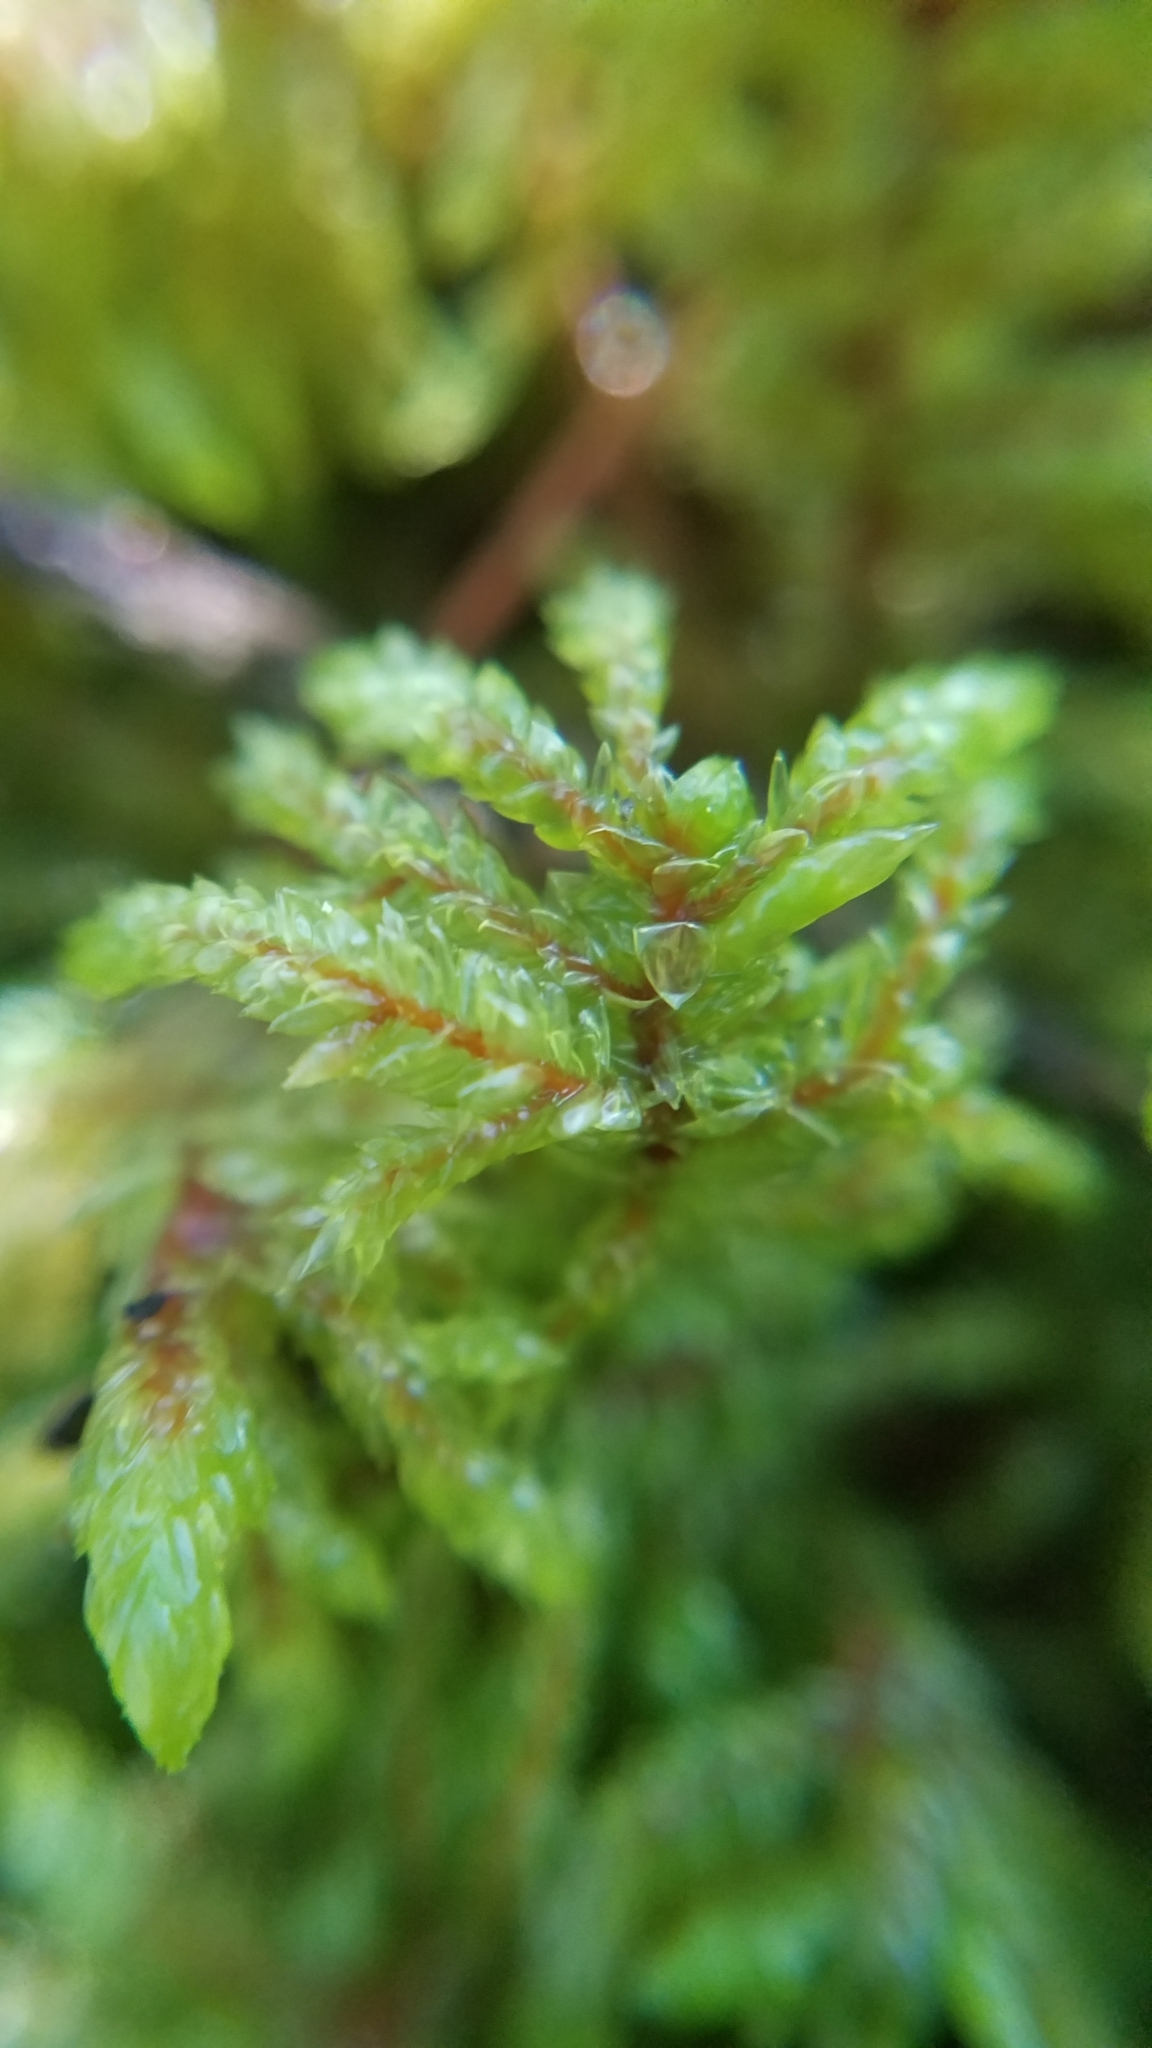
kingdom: Plantae
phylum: Bryophyta
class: Bryopsida
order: Hypnales
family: Hylocomiaceae
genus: Pleurozium
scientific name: Pleurozium schreberi
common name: Red-stemmed feather moss
